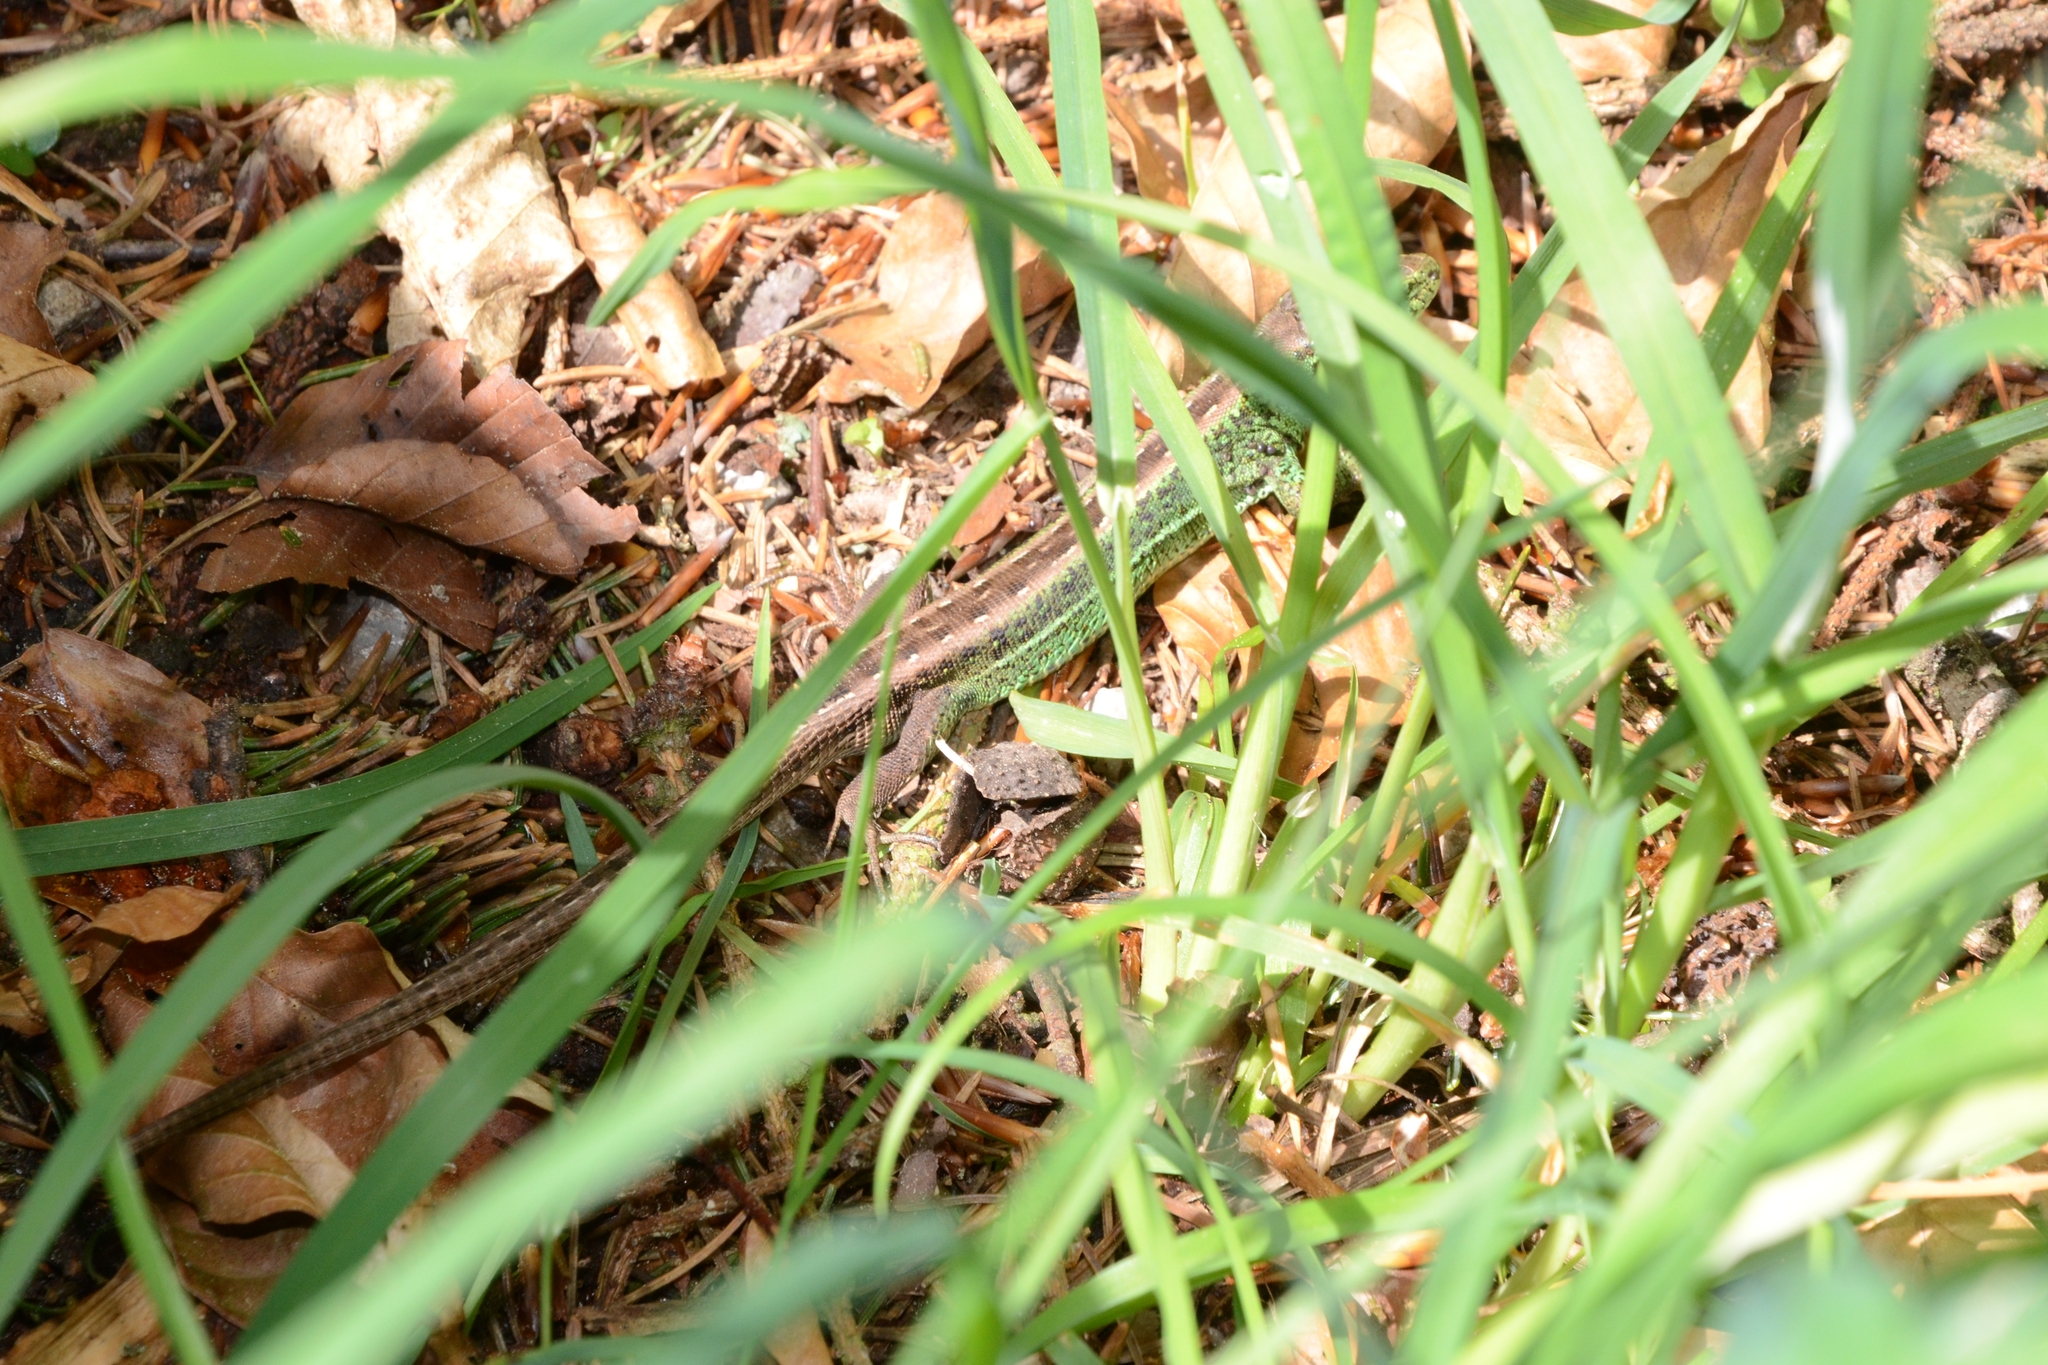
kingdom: Animalia
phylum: Chordata
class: Squamata
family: Lacertidae
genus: Lacerta
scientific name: Lacerta agilis
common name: Sand lizard
